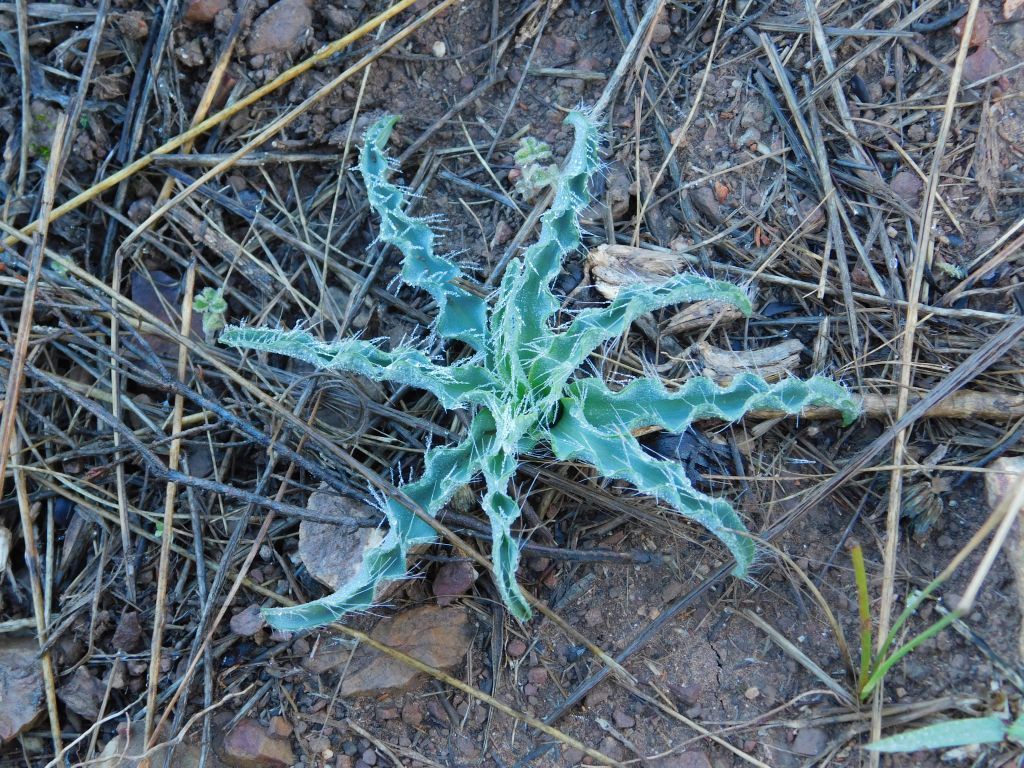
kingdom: Plantae
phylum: Tracheophyta
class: Liliopsida
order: Asparagales
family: Asparagaceae
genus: Drimia
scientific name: Drimia elata
